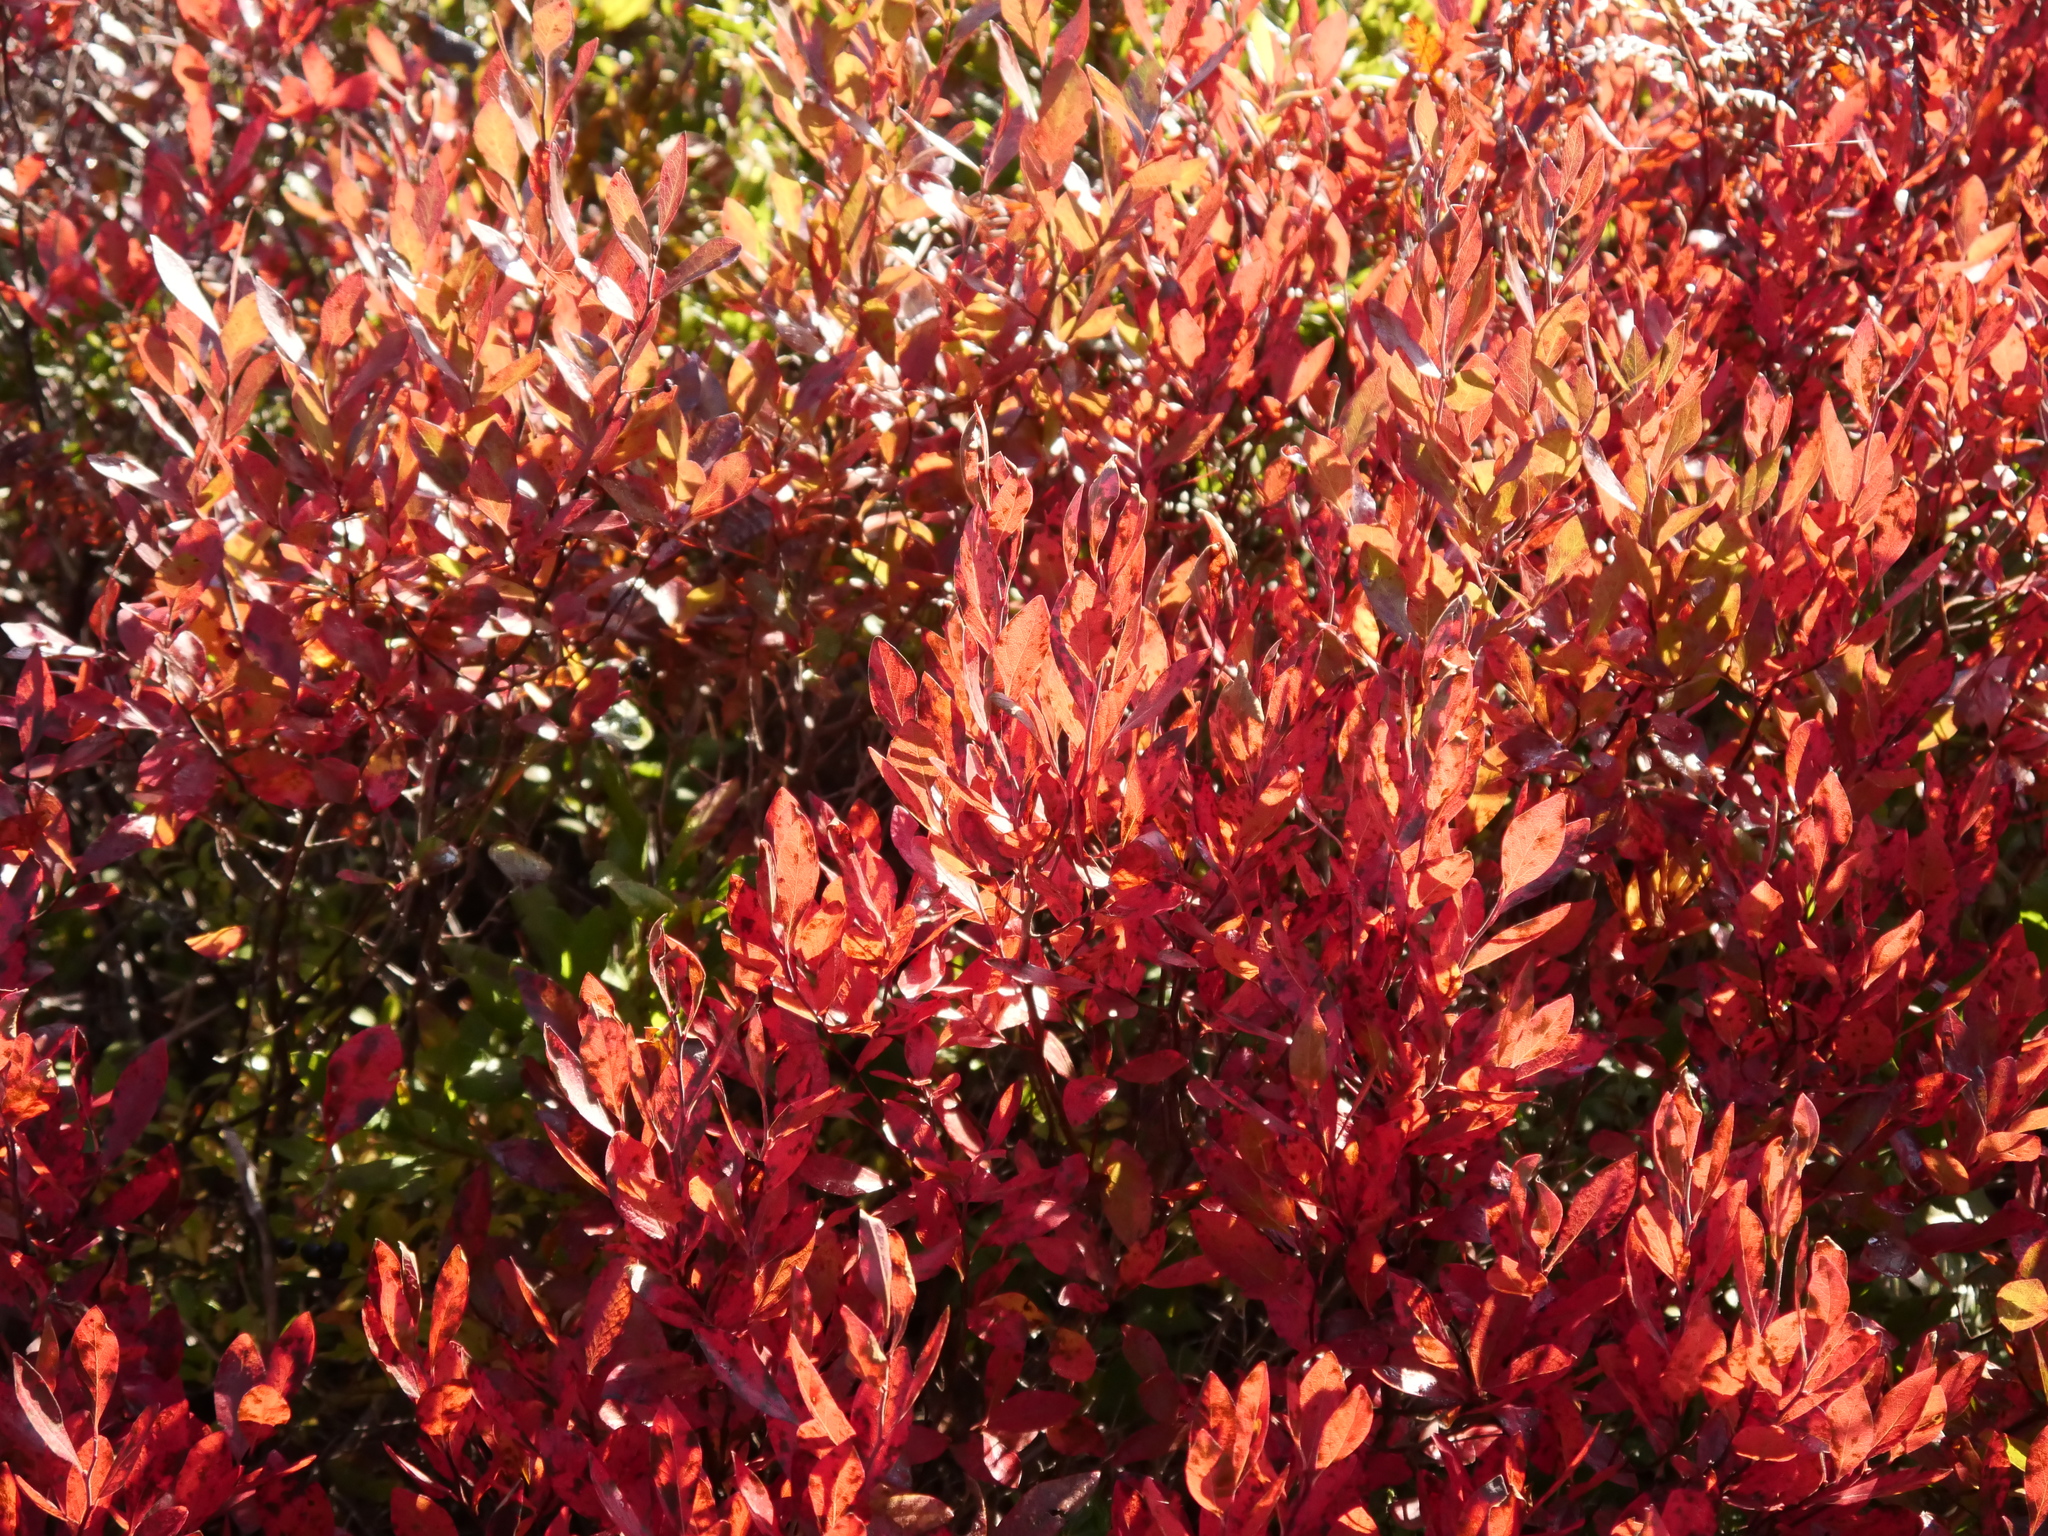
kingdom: Plantae
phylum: Tracheophyta
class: Magnoliopsida
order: Ericales
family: Ericaceae
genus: Gaylussacia
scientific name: Gaylussacia baccata
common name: Black huckleberry
